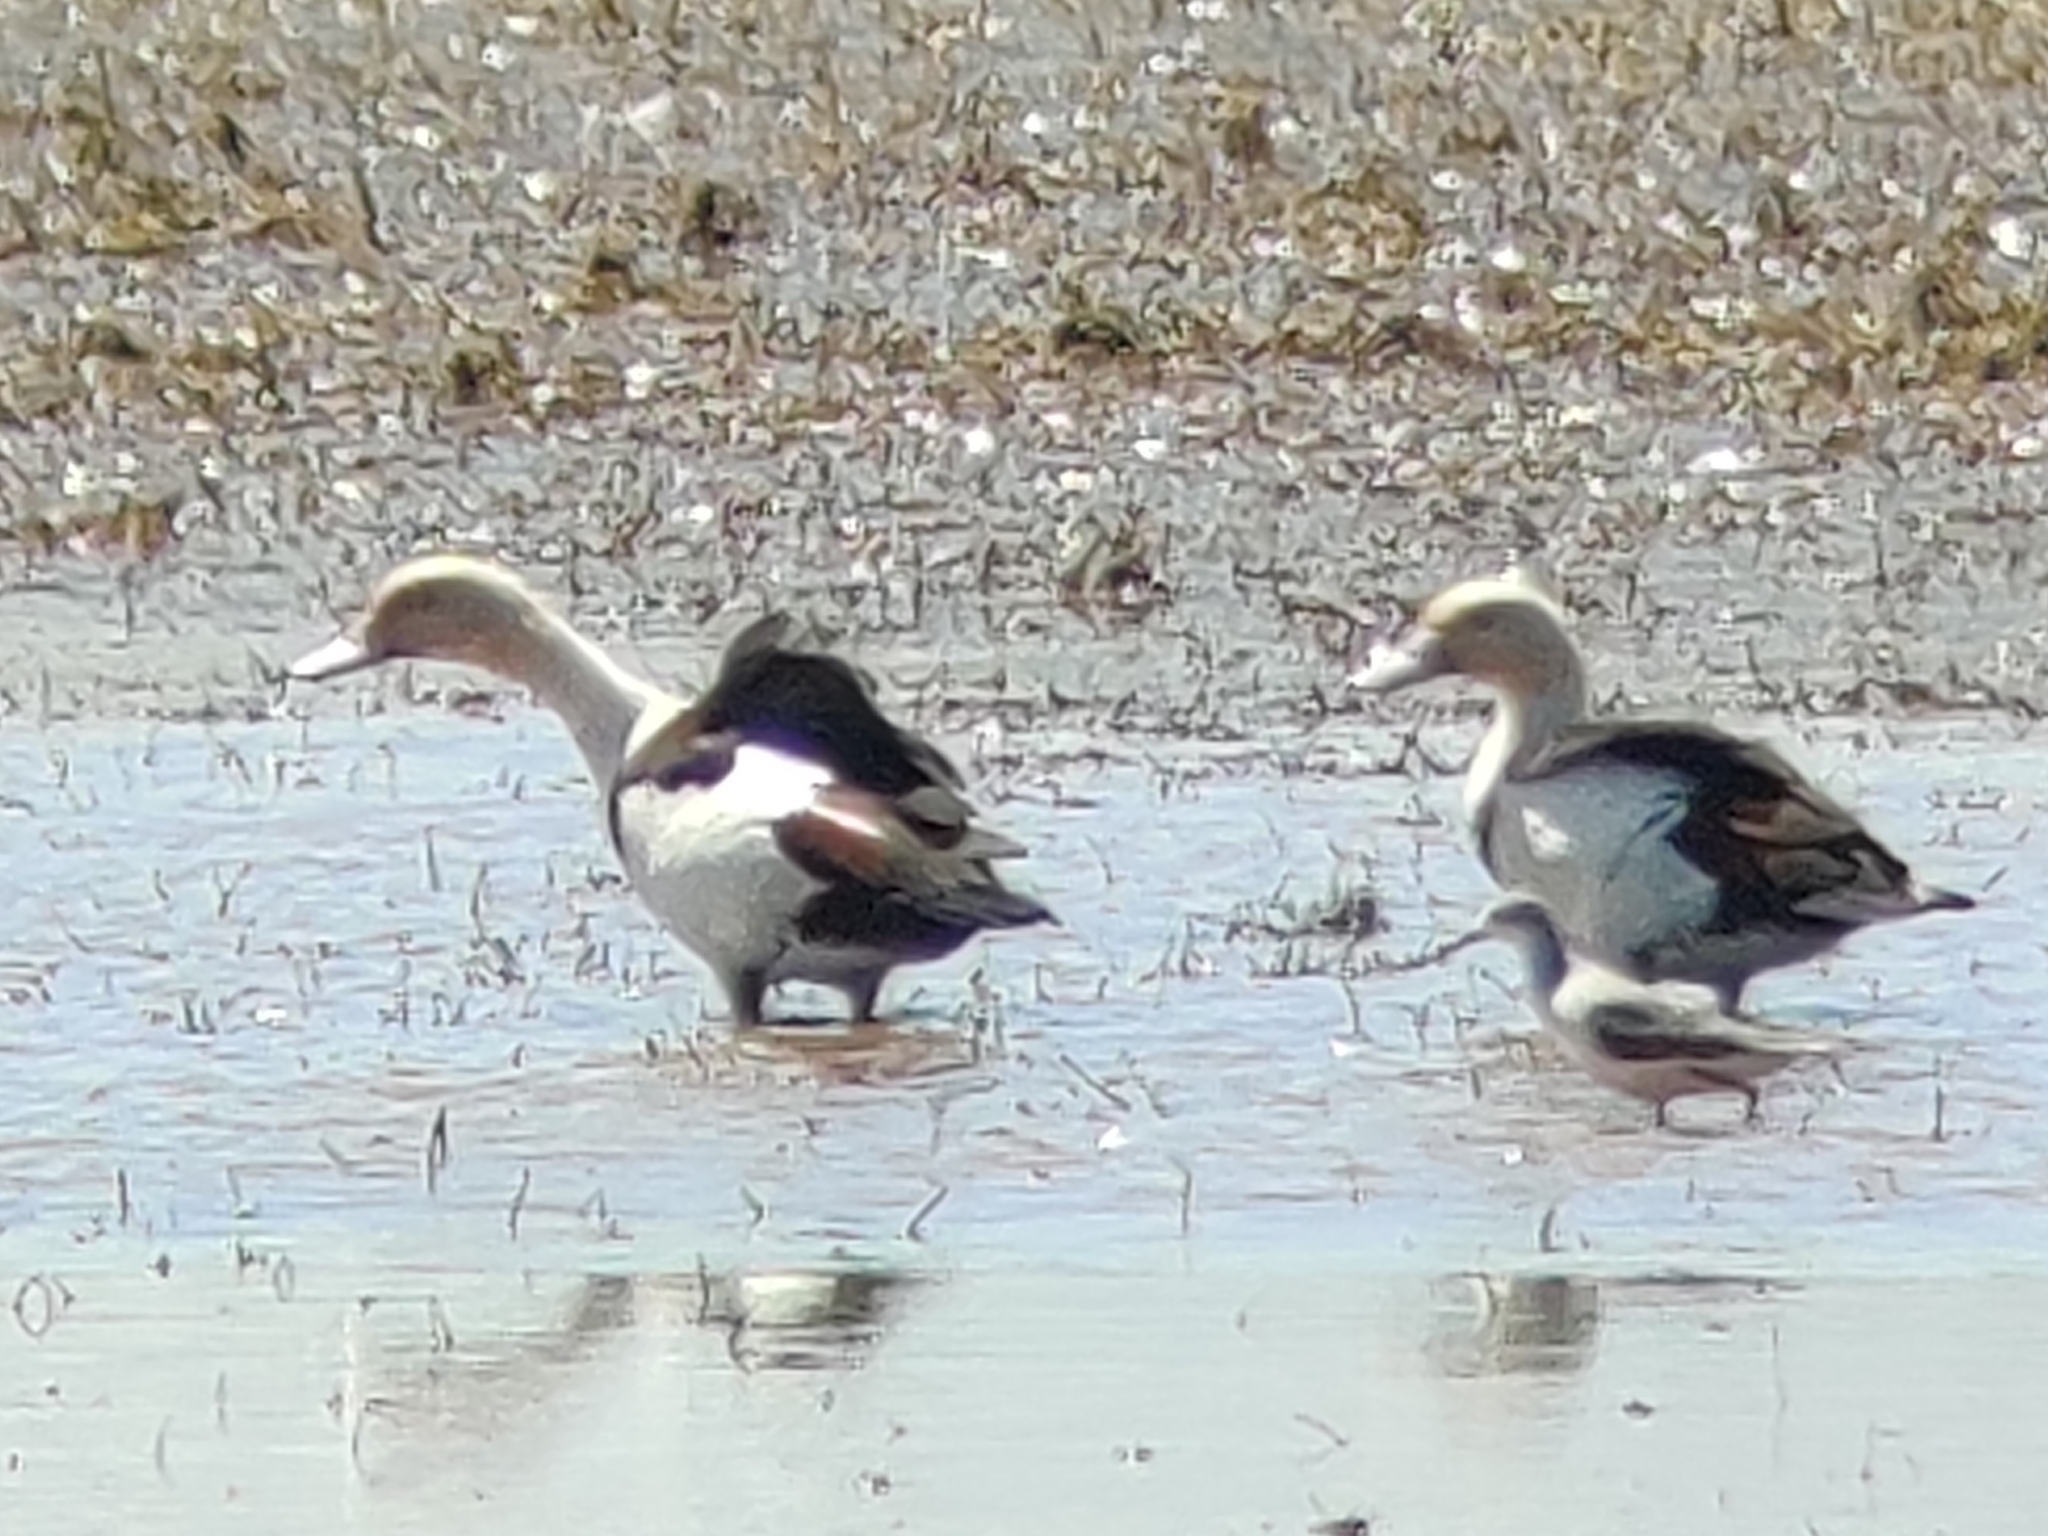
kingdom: Animalia
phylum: Chordata
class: Aves
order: Anseriformes
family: Anatidae
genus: Radjah
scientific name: Radjah radjah
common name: Radjah shelduck
